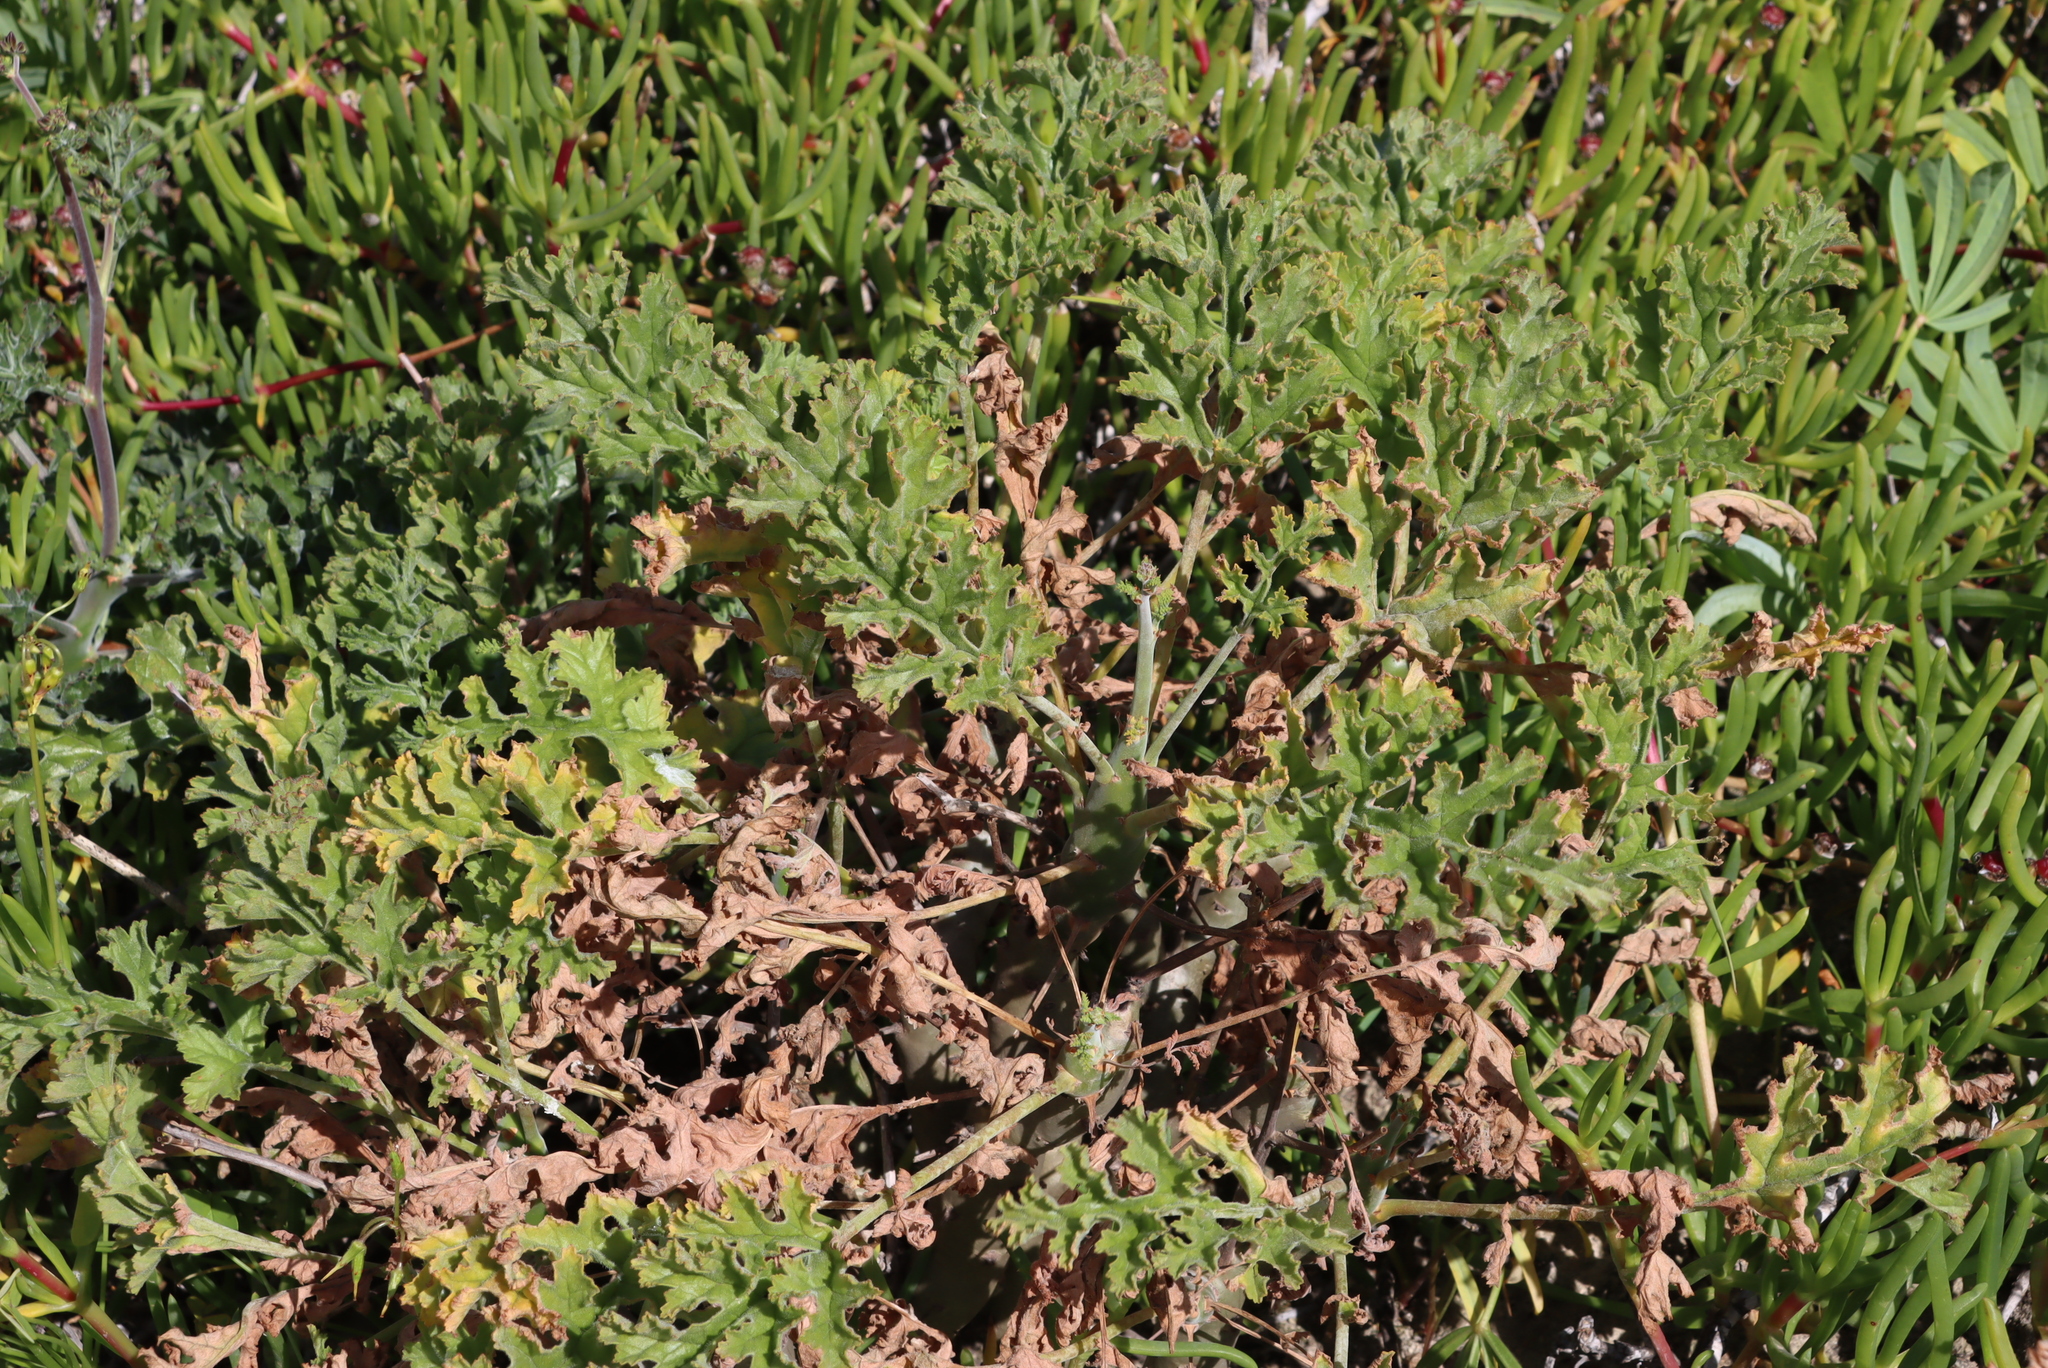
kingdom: Plantae
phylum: Tracheophyta
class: Magnoliopsida
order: Geraniales
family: Geraniaceae
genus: Pelargonium
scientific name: Pelargonium carnosum
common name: Fleshy-stalk pelargonium
